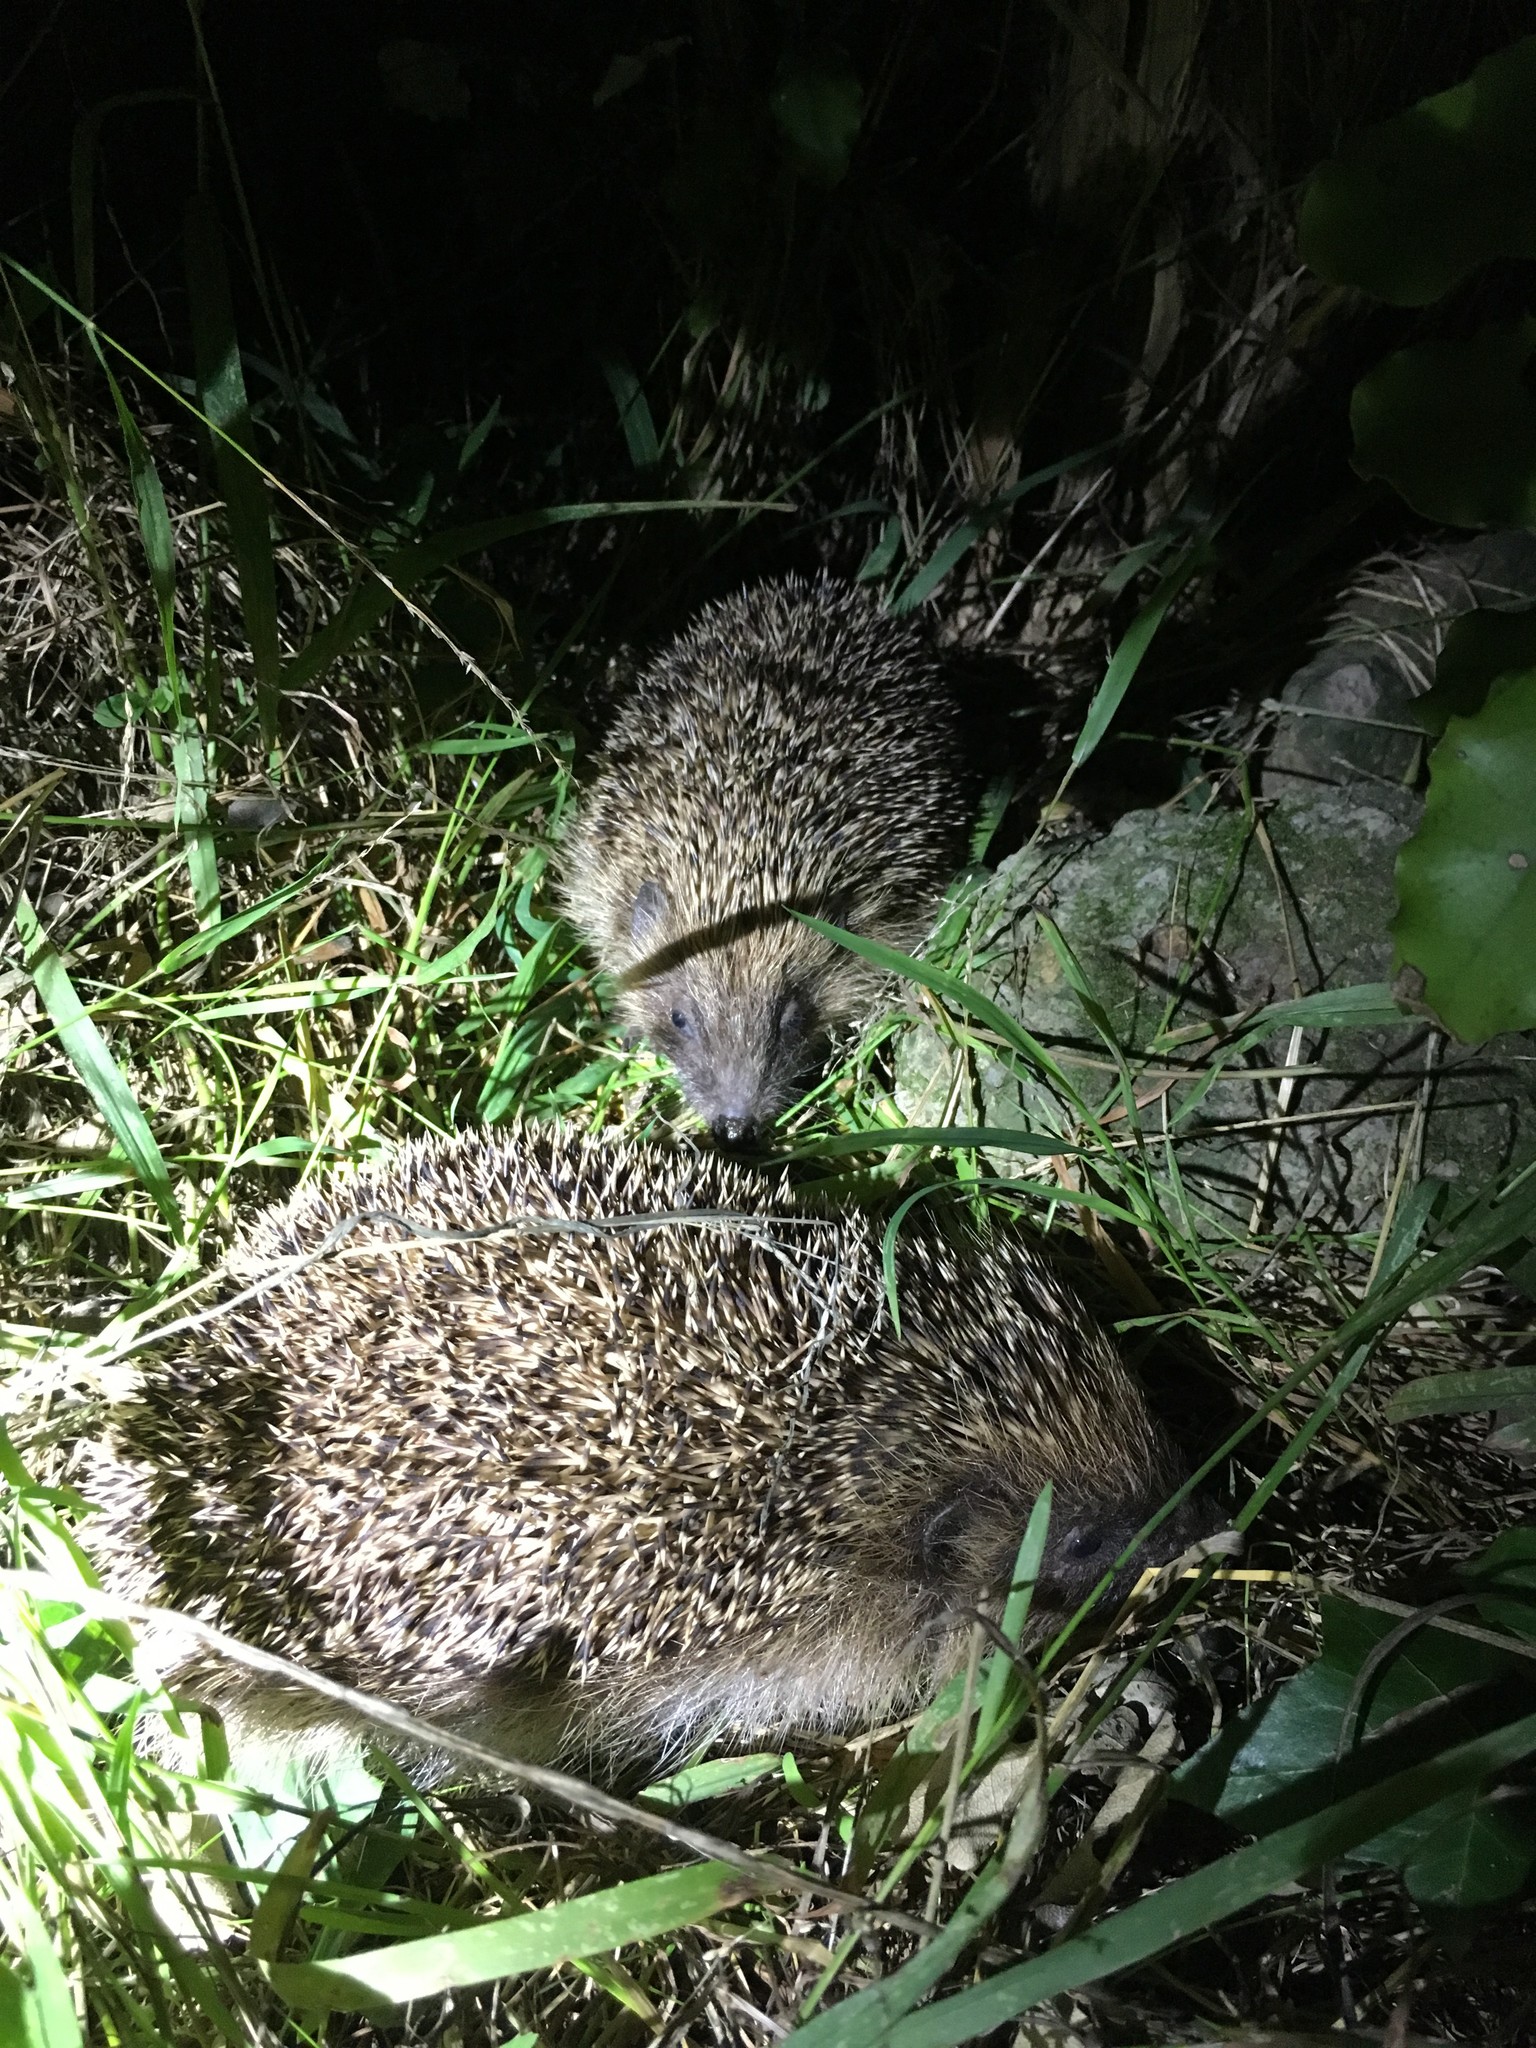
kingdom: Animalia
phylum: Chordata
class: Mammalia
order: Erinaceomorpha
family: Erinaceidae
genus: Erinaceus
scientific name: Erinaceus europaeus
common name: West european hedgehog
